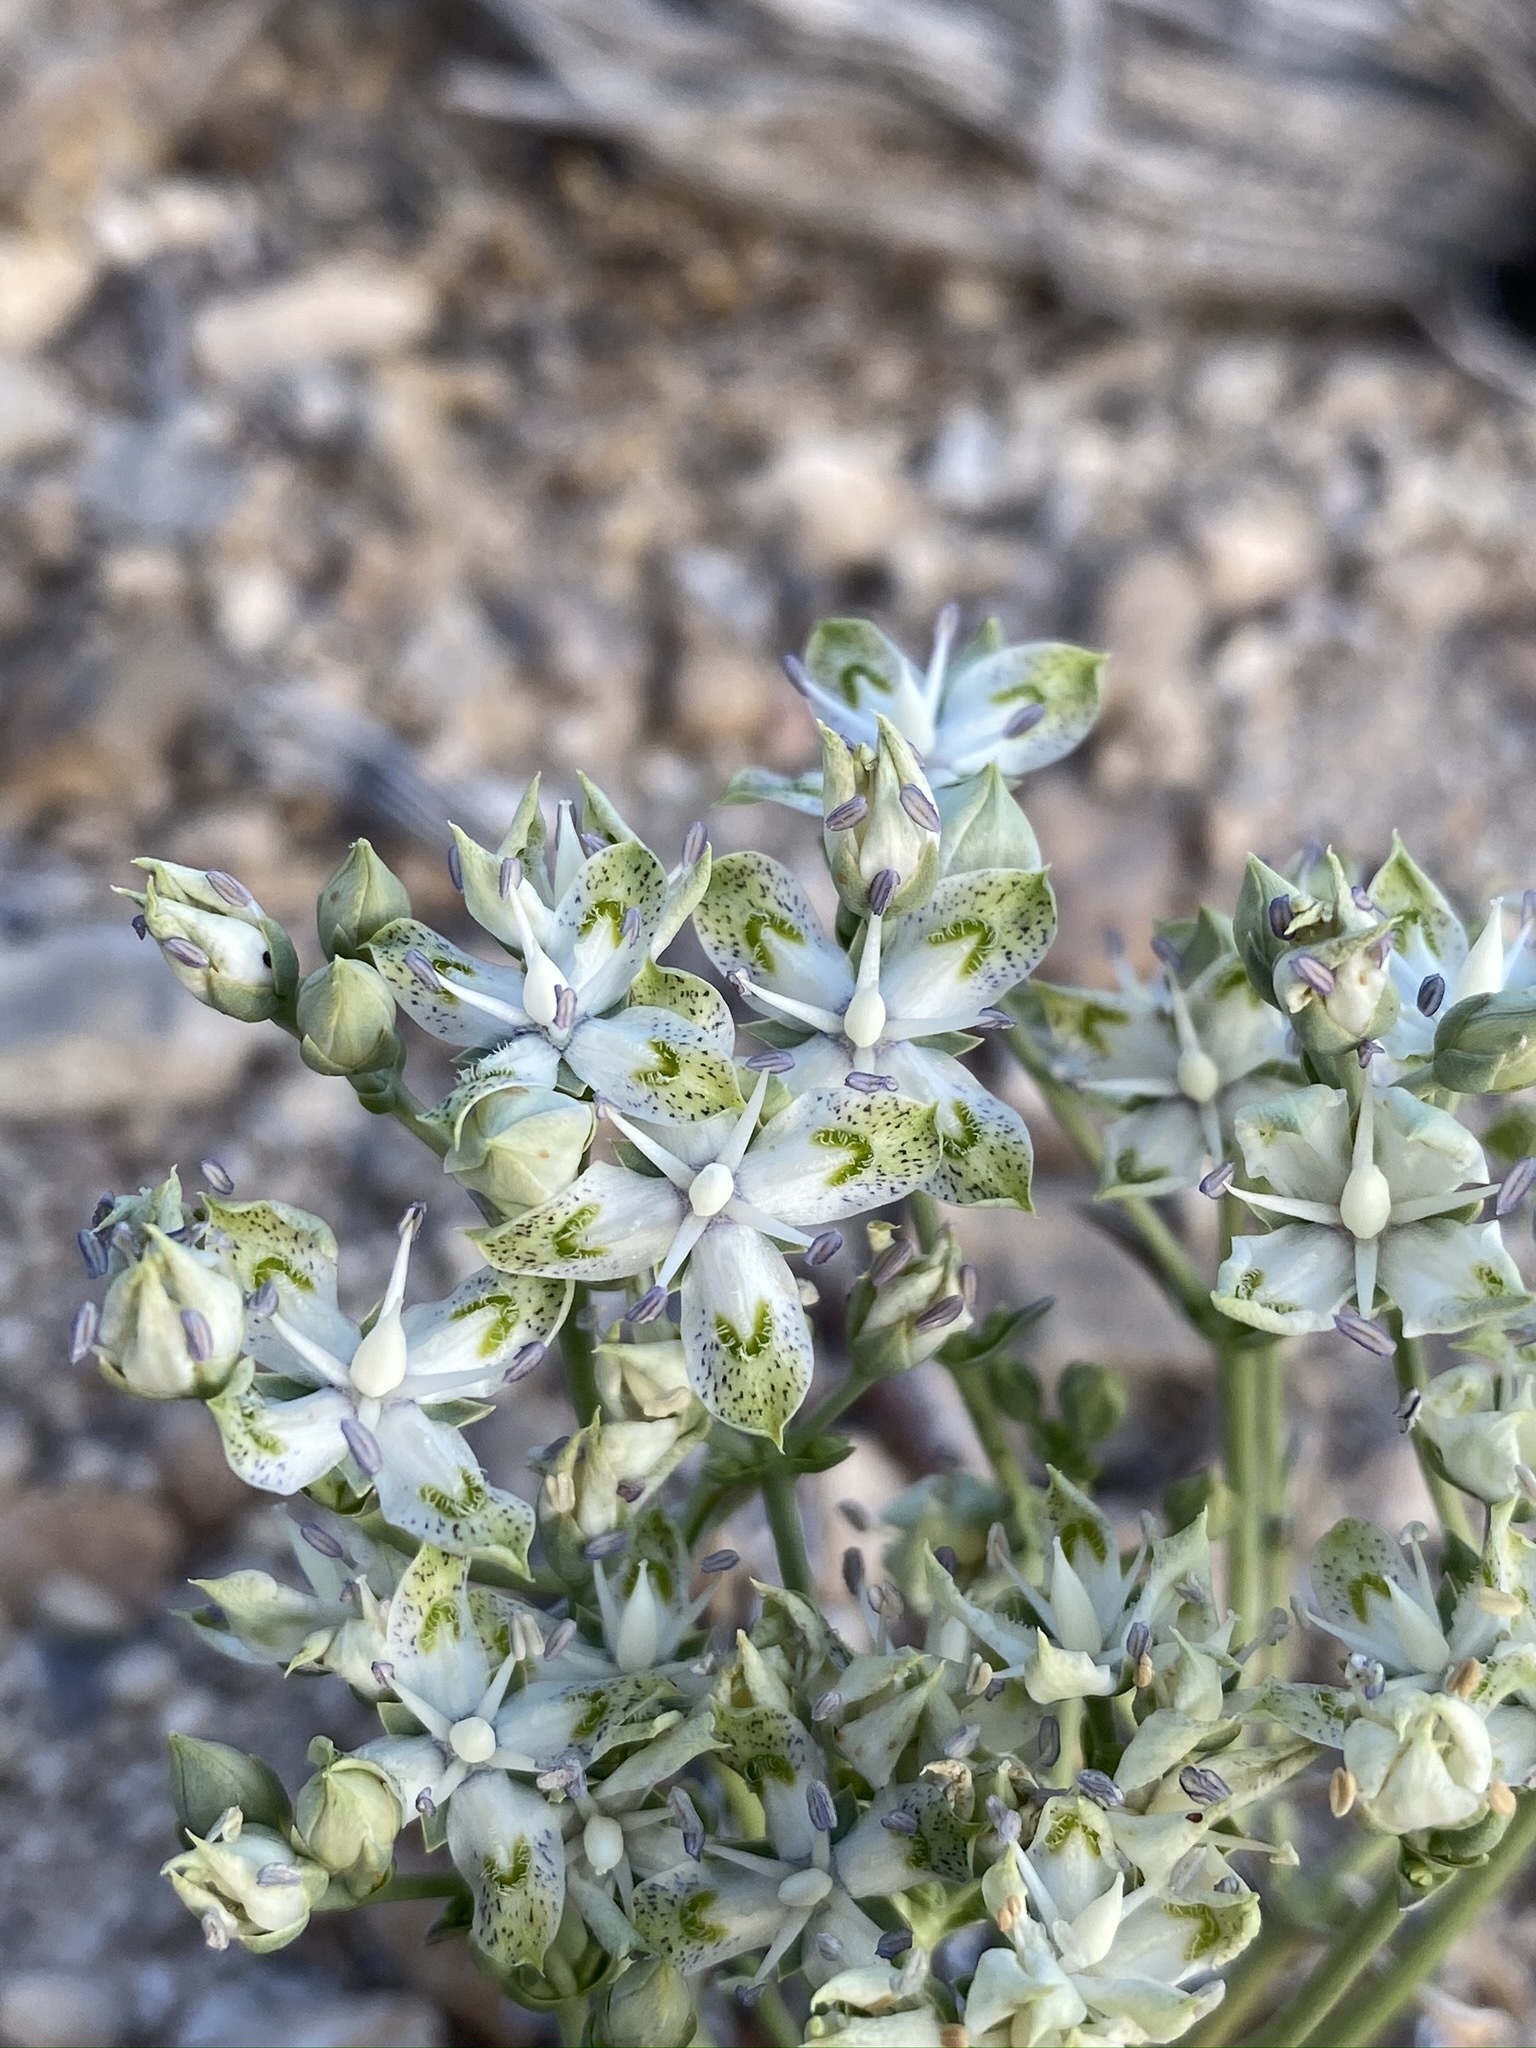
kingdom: Plantae
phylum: Tracheophyta
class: Magnoliopsida
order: Gentianales
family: Gentianaceae
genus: Frasera
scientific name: Frasera albomarginata
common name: Desert frasera
